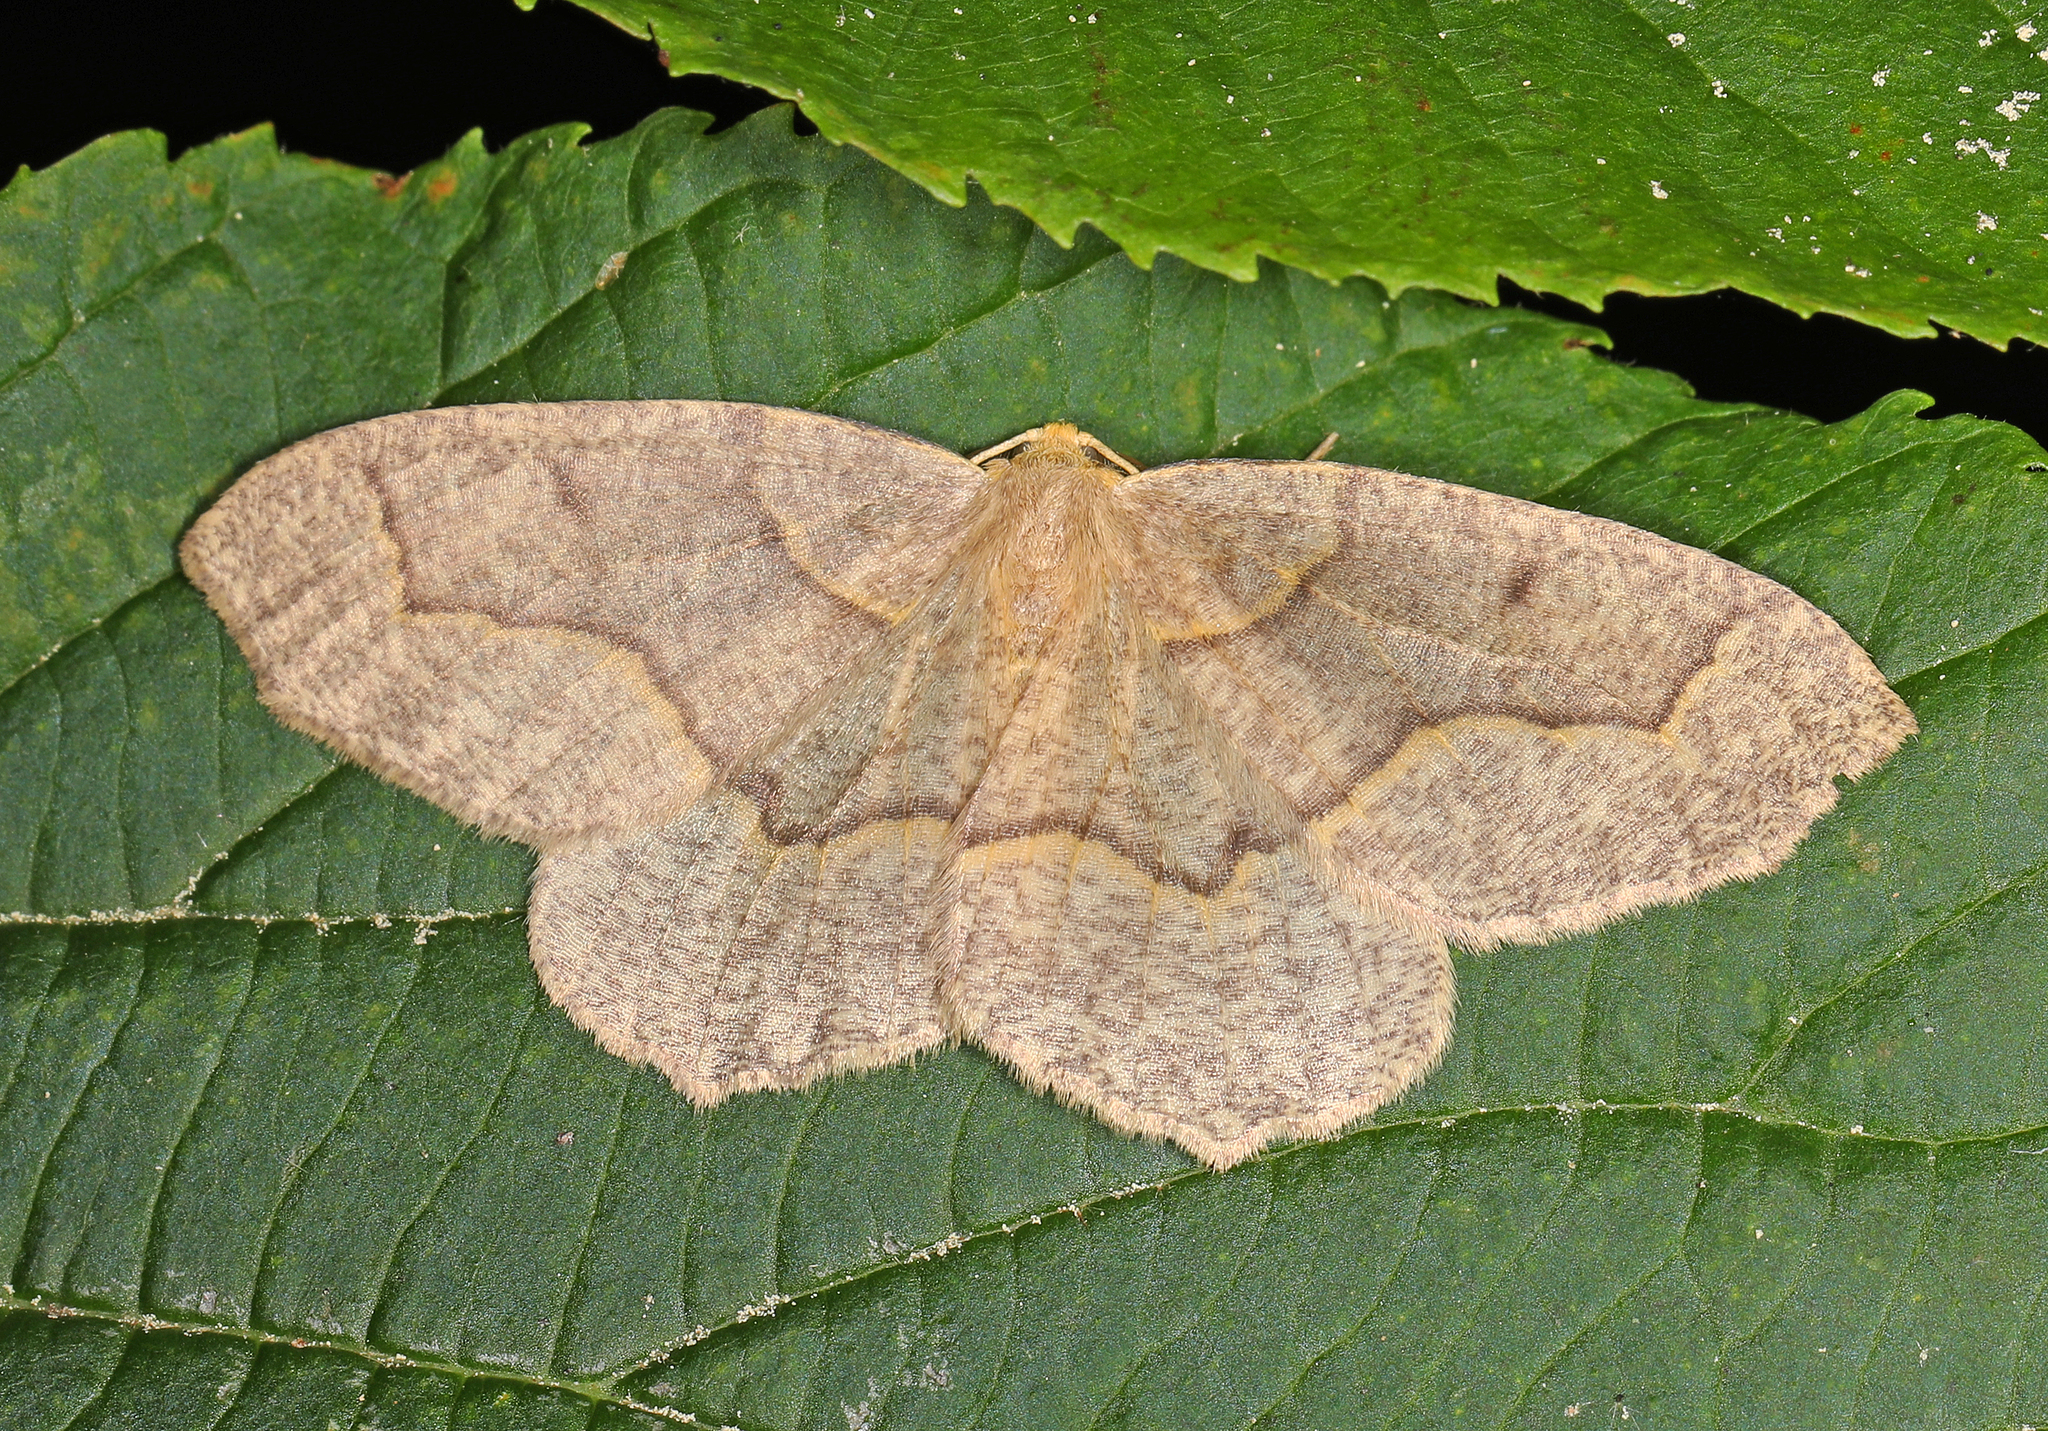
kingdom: Animalia
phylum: Arthropoda
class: Insecta
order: Lepidoptera
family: Geometridae
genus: Lambdina
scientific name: Lambdina fiscellaria
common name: Hemlock looper
